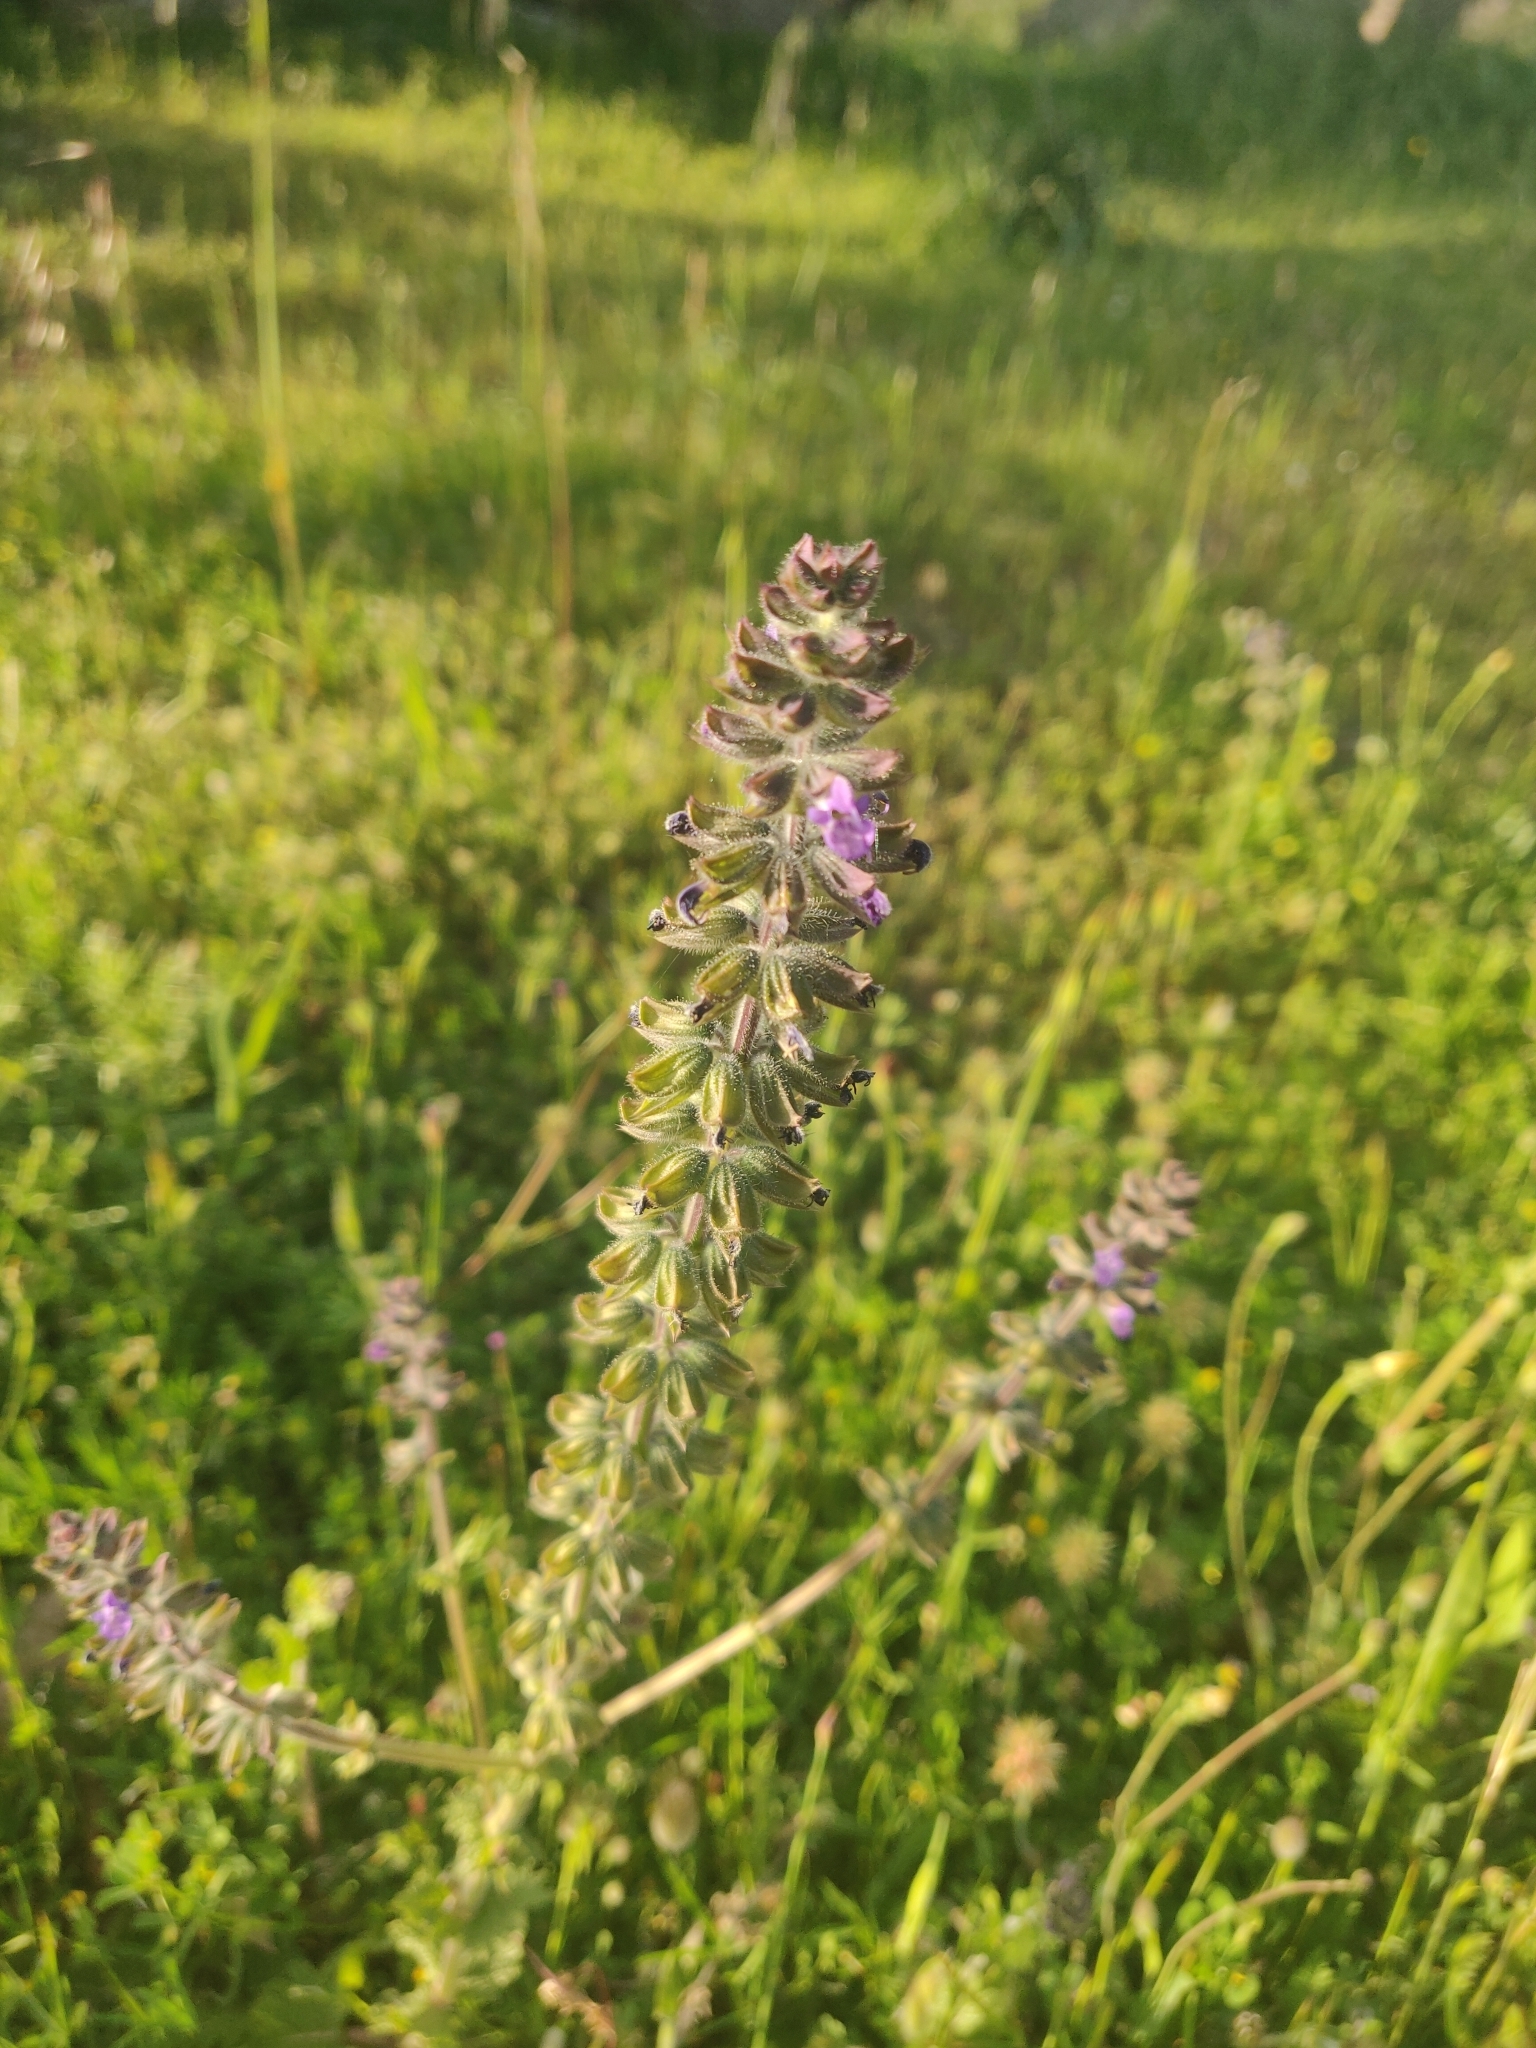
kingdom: Plantae
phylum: Tracheophyta
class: Magnoliopsida
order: Lamiales
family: Lamiaceae
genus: Salvia
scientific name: Salvia verbenaca
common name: Wild clary
